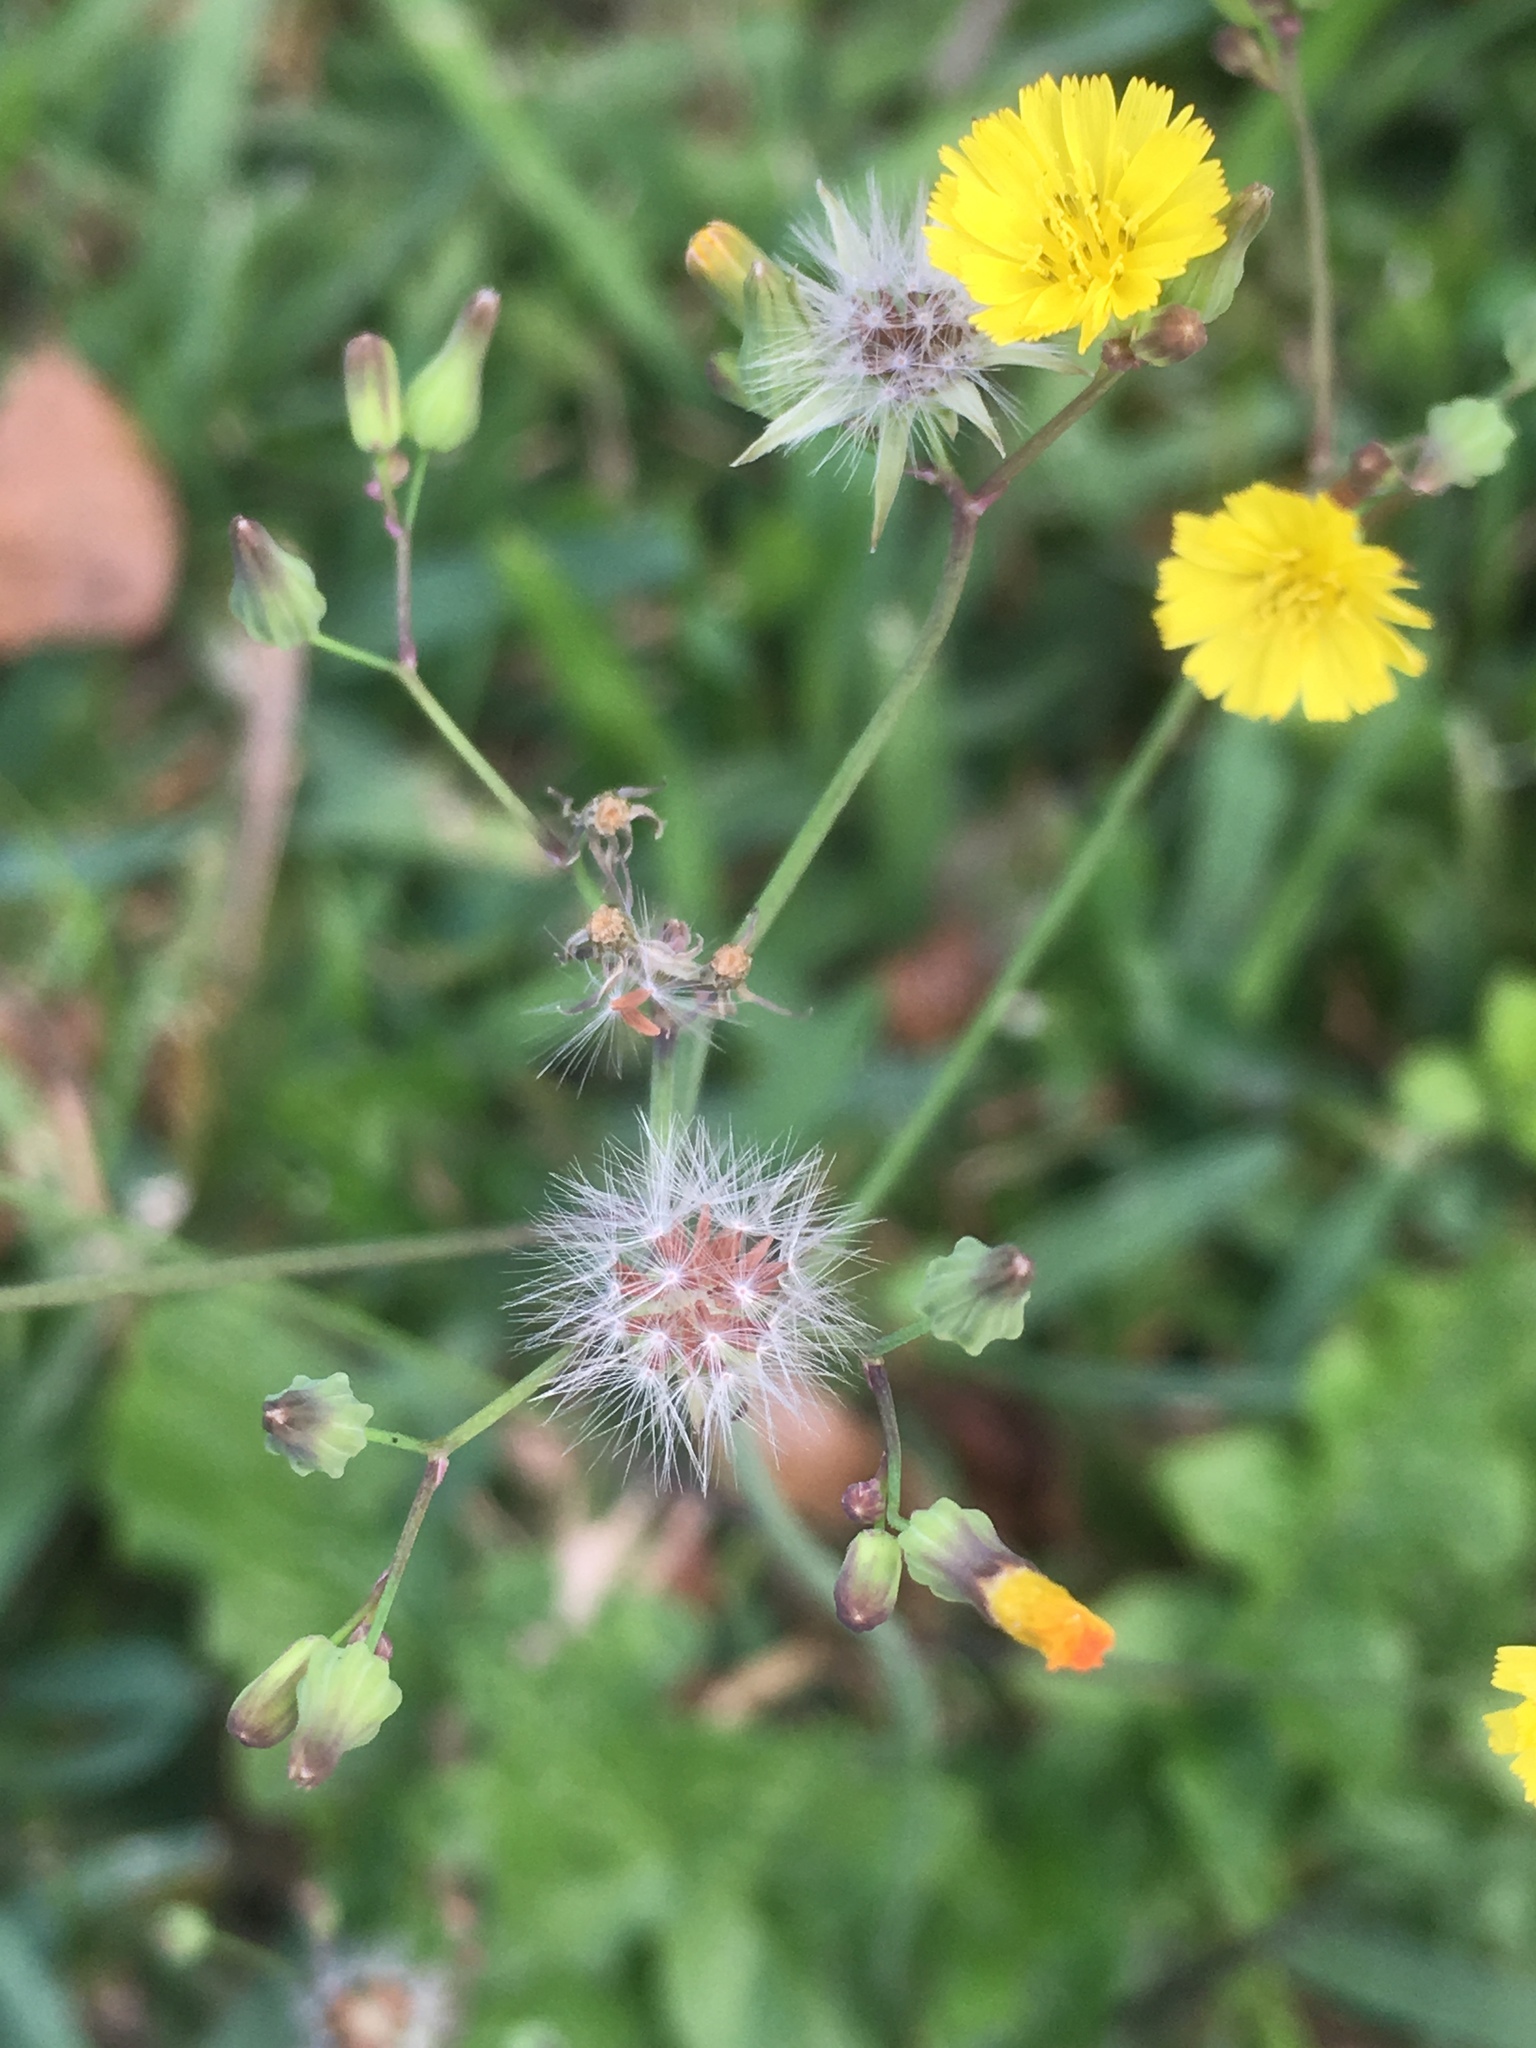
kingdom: Plantae
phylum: Tracheophyta
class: Magnoliopsida
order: Asterales
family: Asteraceae
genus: Youngia
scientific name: Youngia japonica
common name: Oriental false hawksbeard
